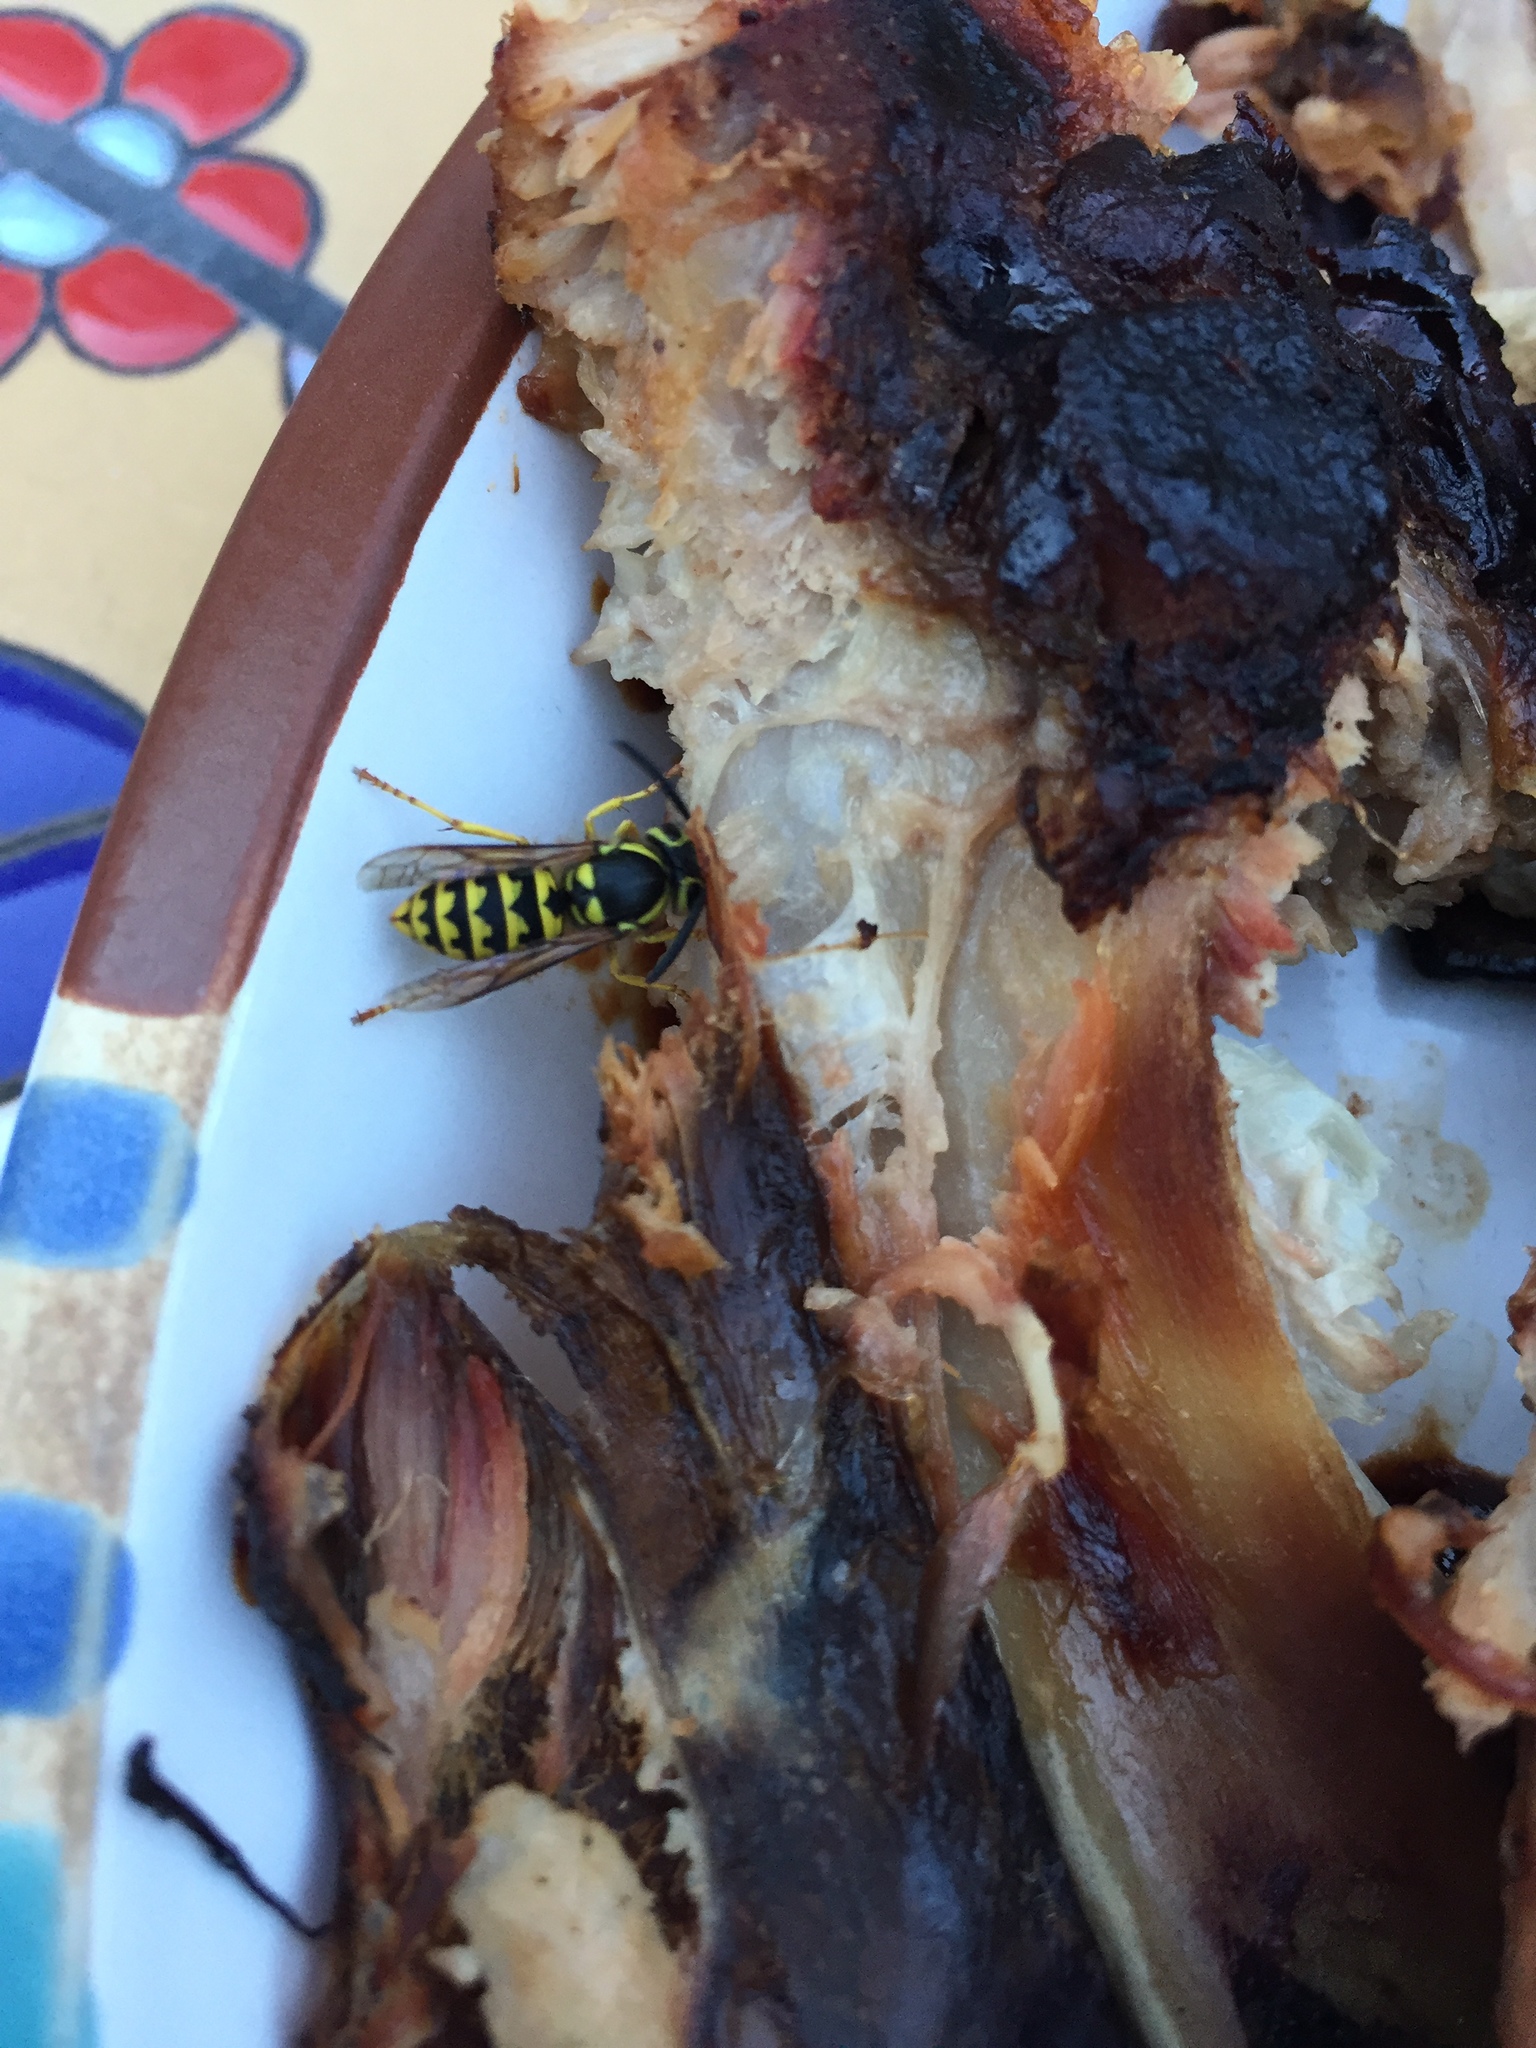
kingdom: Animalia
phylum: Arthropoda
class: Insecta
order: Hymenoptera
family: Vespidae
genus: Vespula
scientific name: Vespula pensylvanica
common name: Western yellowjacket
